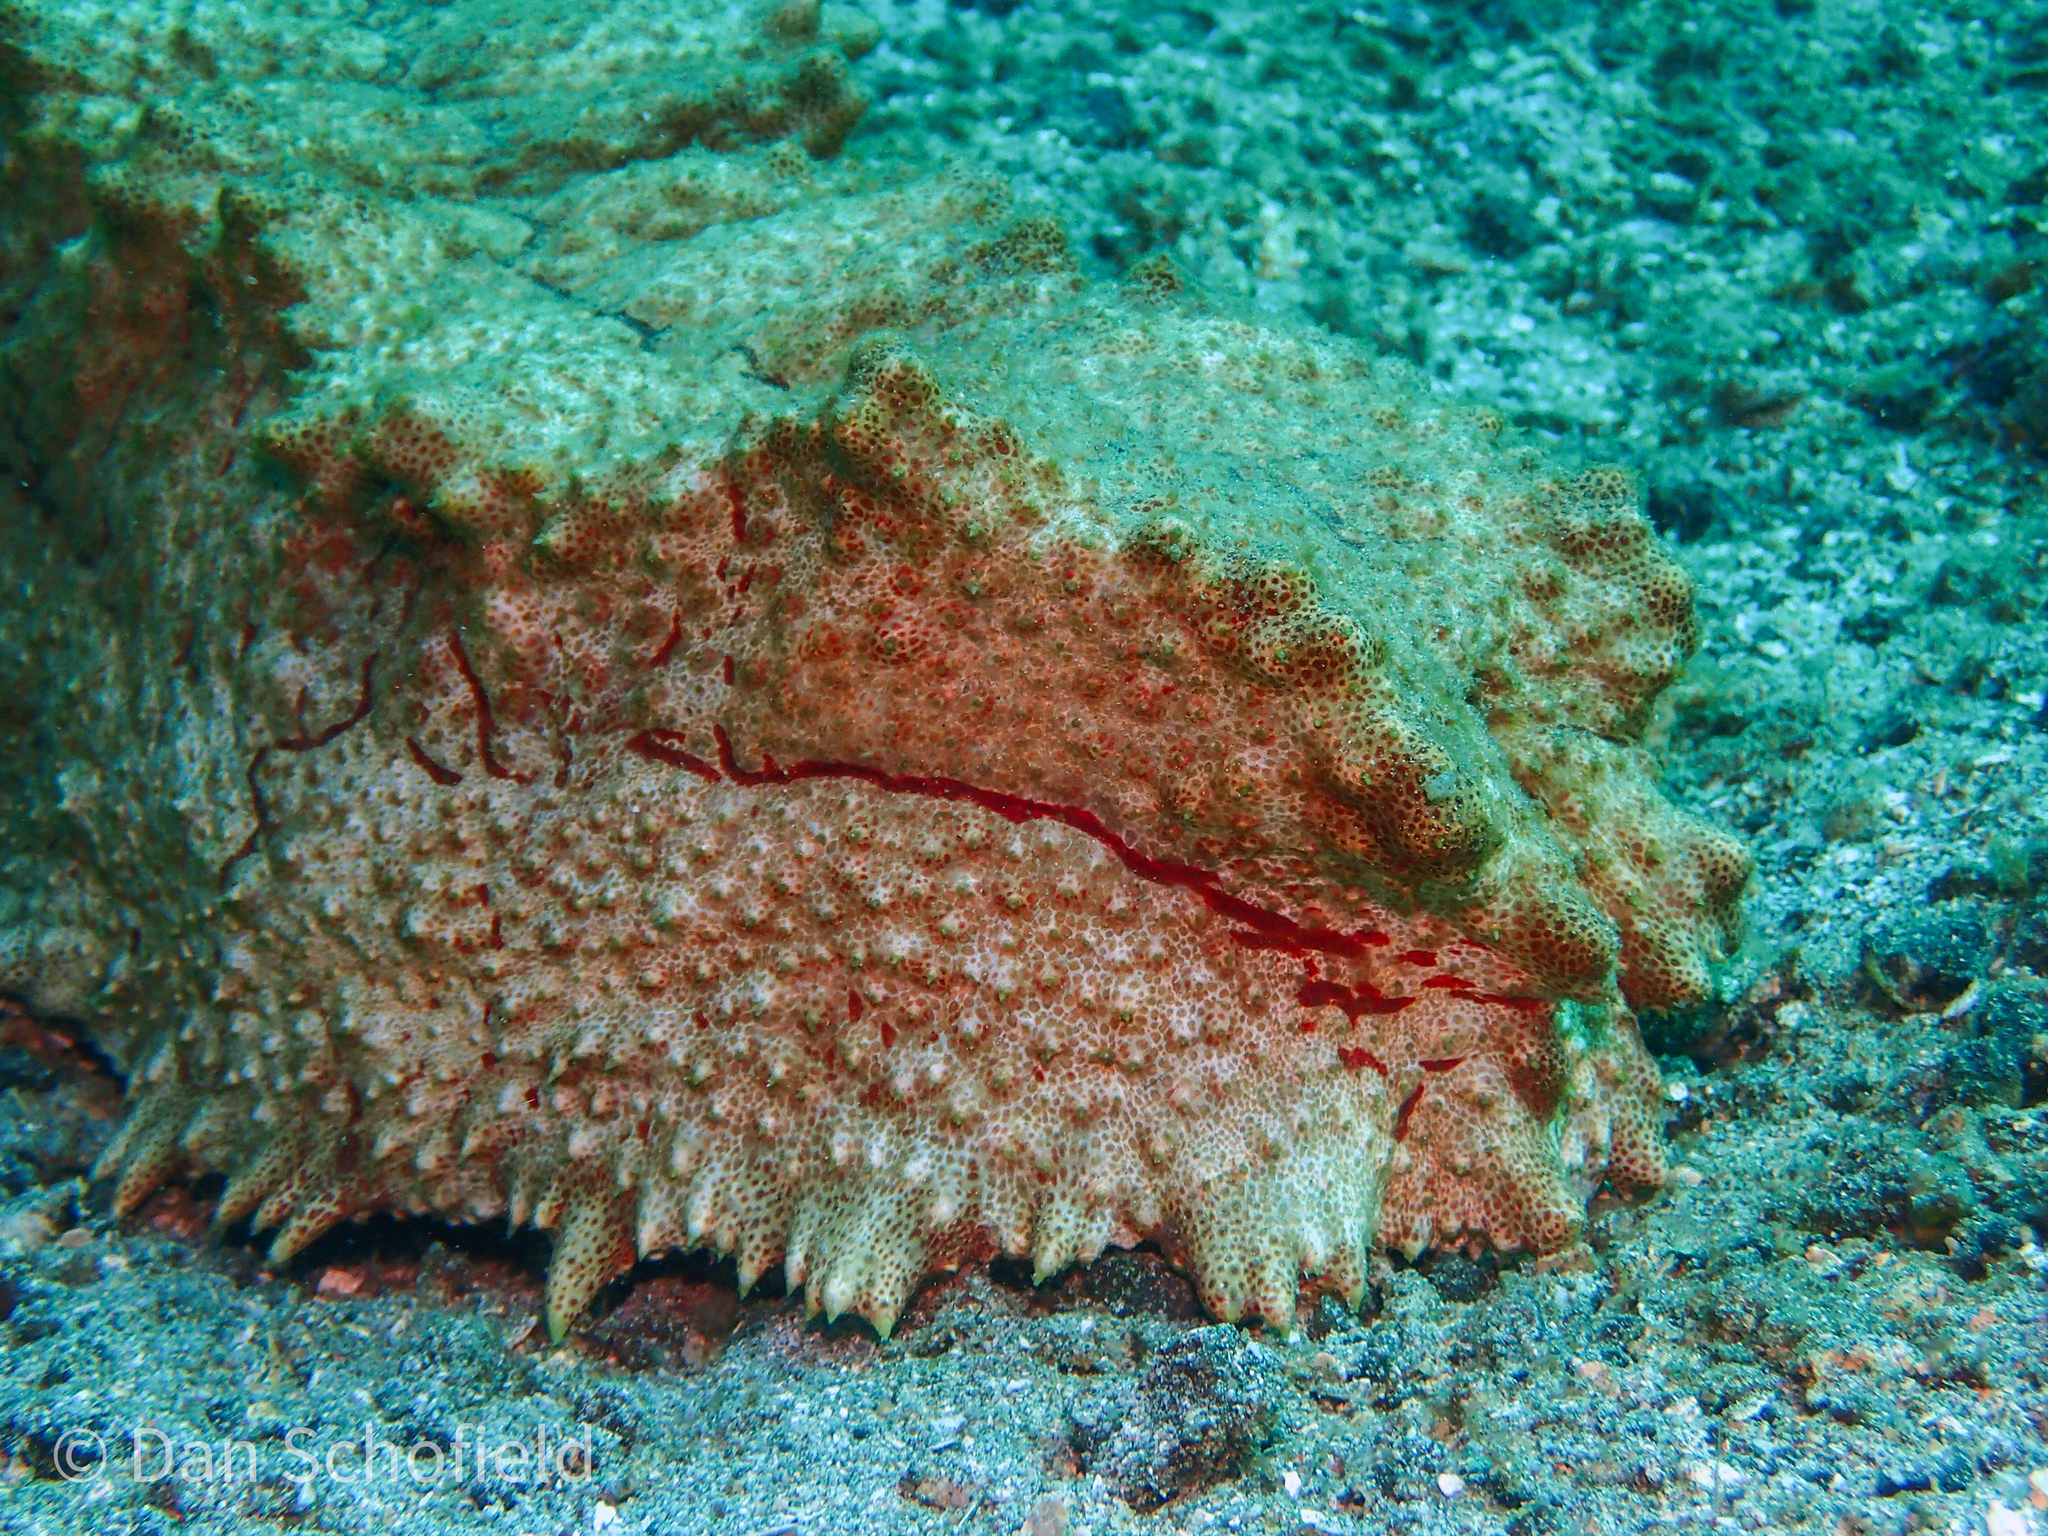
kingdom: Animalia
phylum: Echinodermata
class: Holothuroidea
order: Synallactida
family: Stichopodidae
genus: Thelenota
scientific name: Thelenota anax
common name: Amberfish
